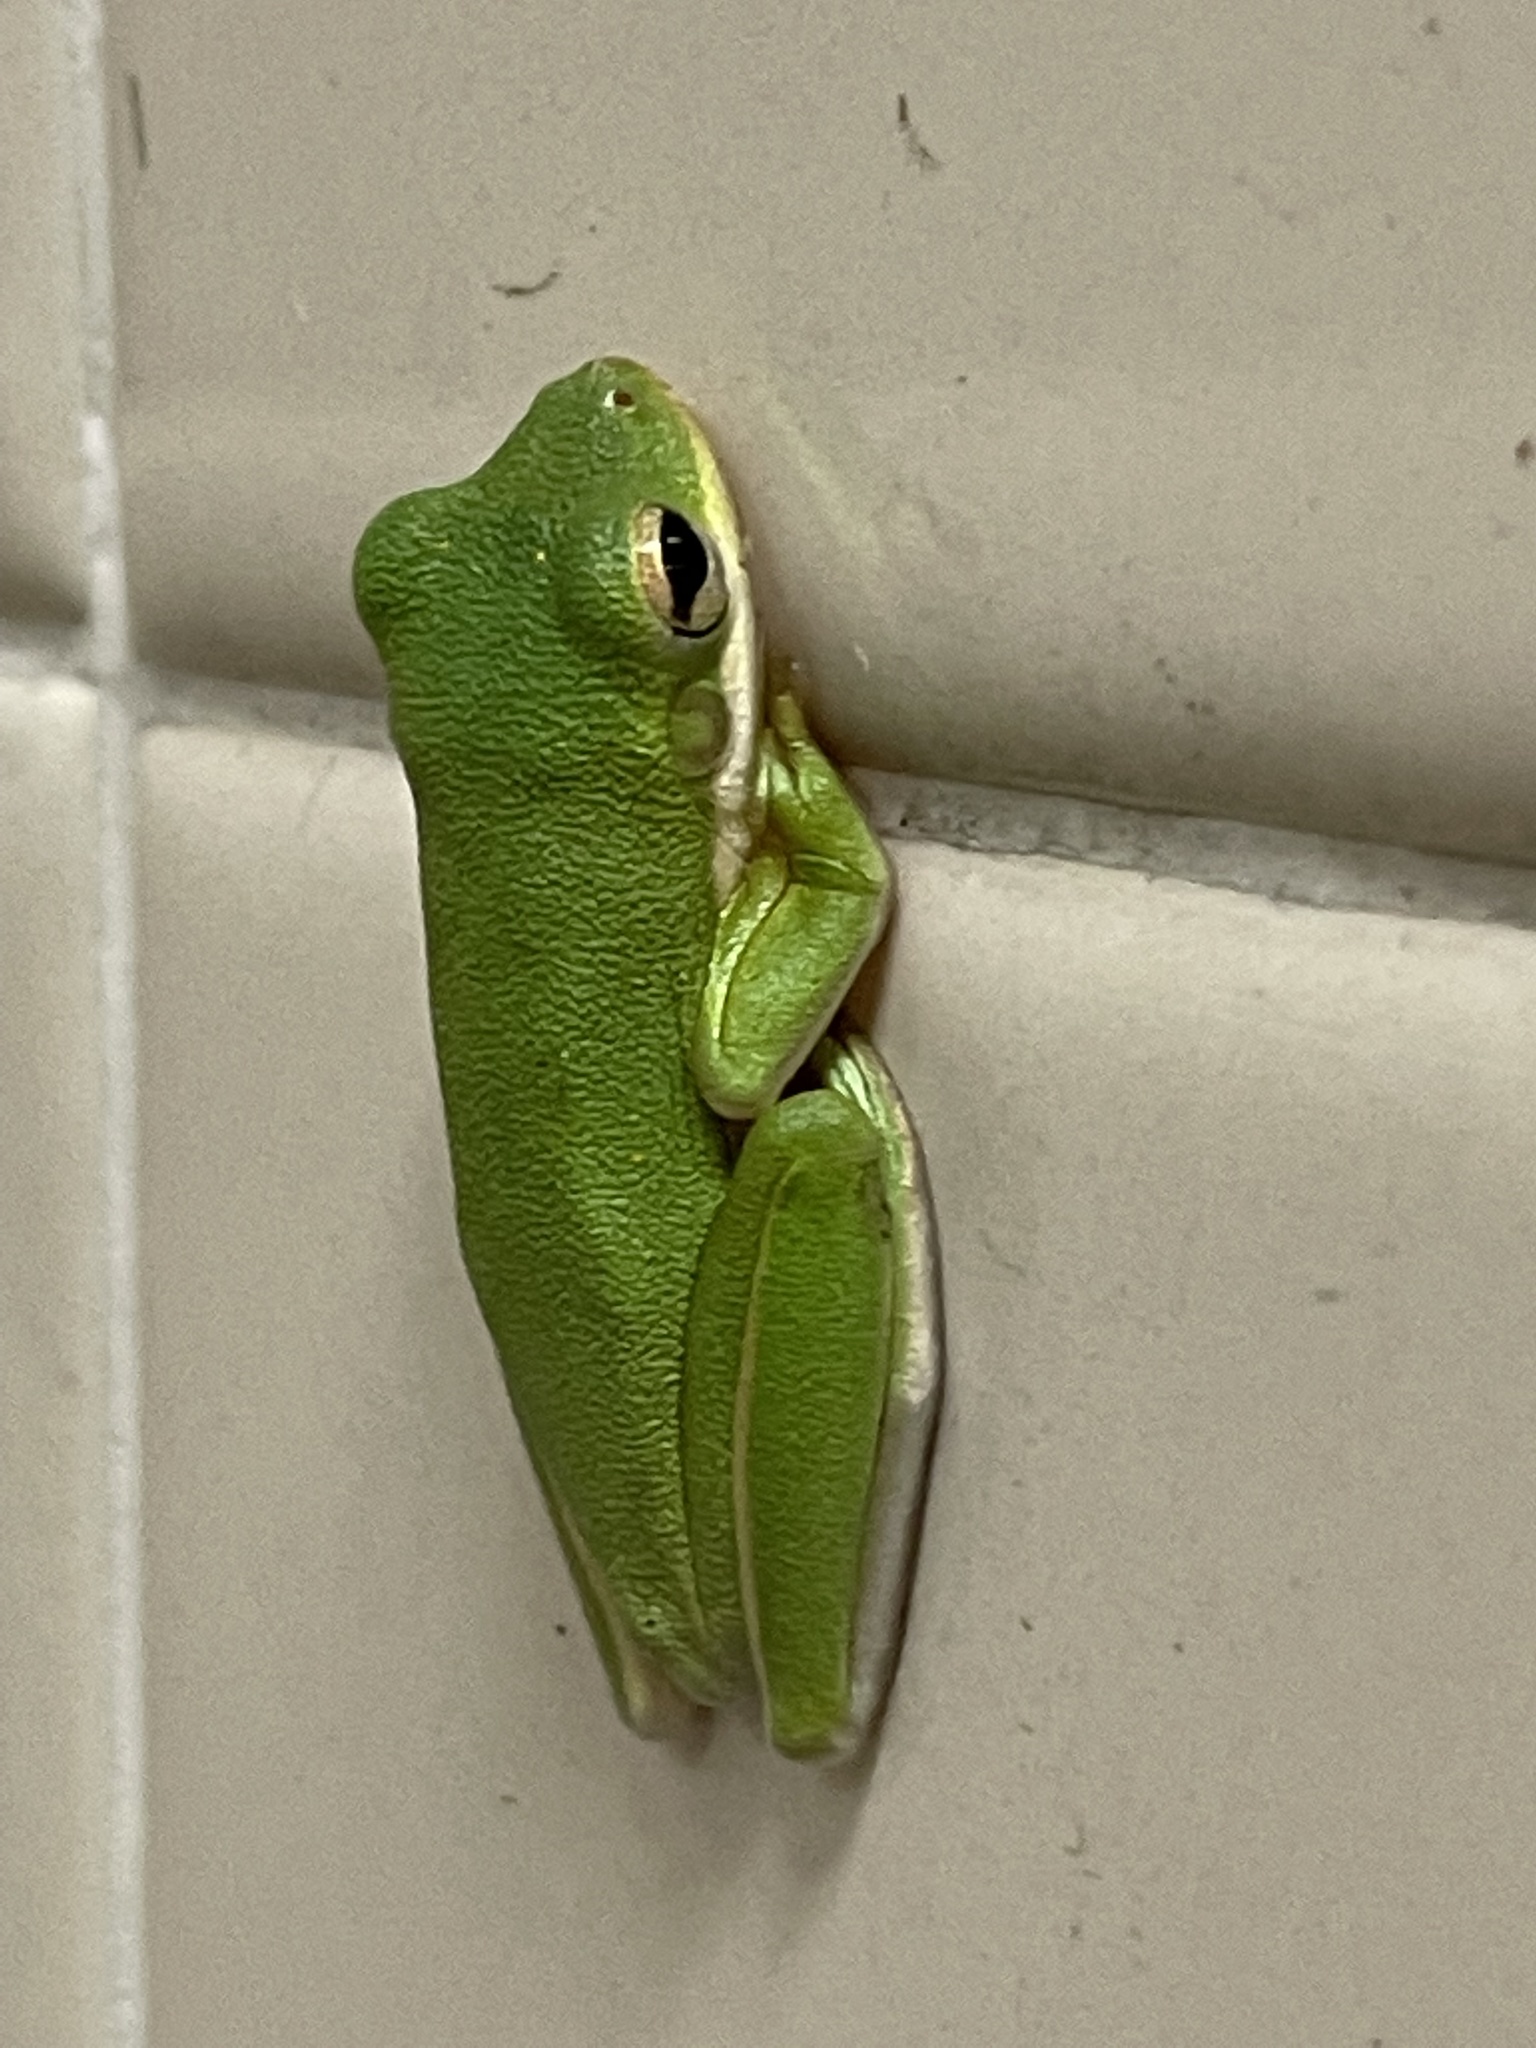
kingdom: Animalia
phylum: Chordata
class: Amphibia
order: Anura
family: Hylidae
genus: Dryophytes
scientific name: Dryophytes cinereus
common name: Green treefrog
